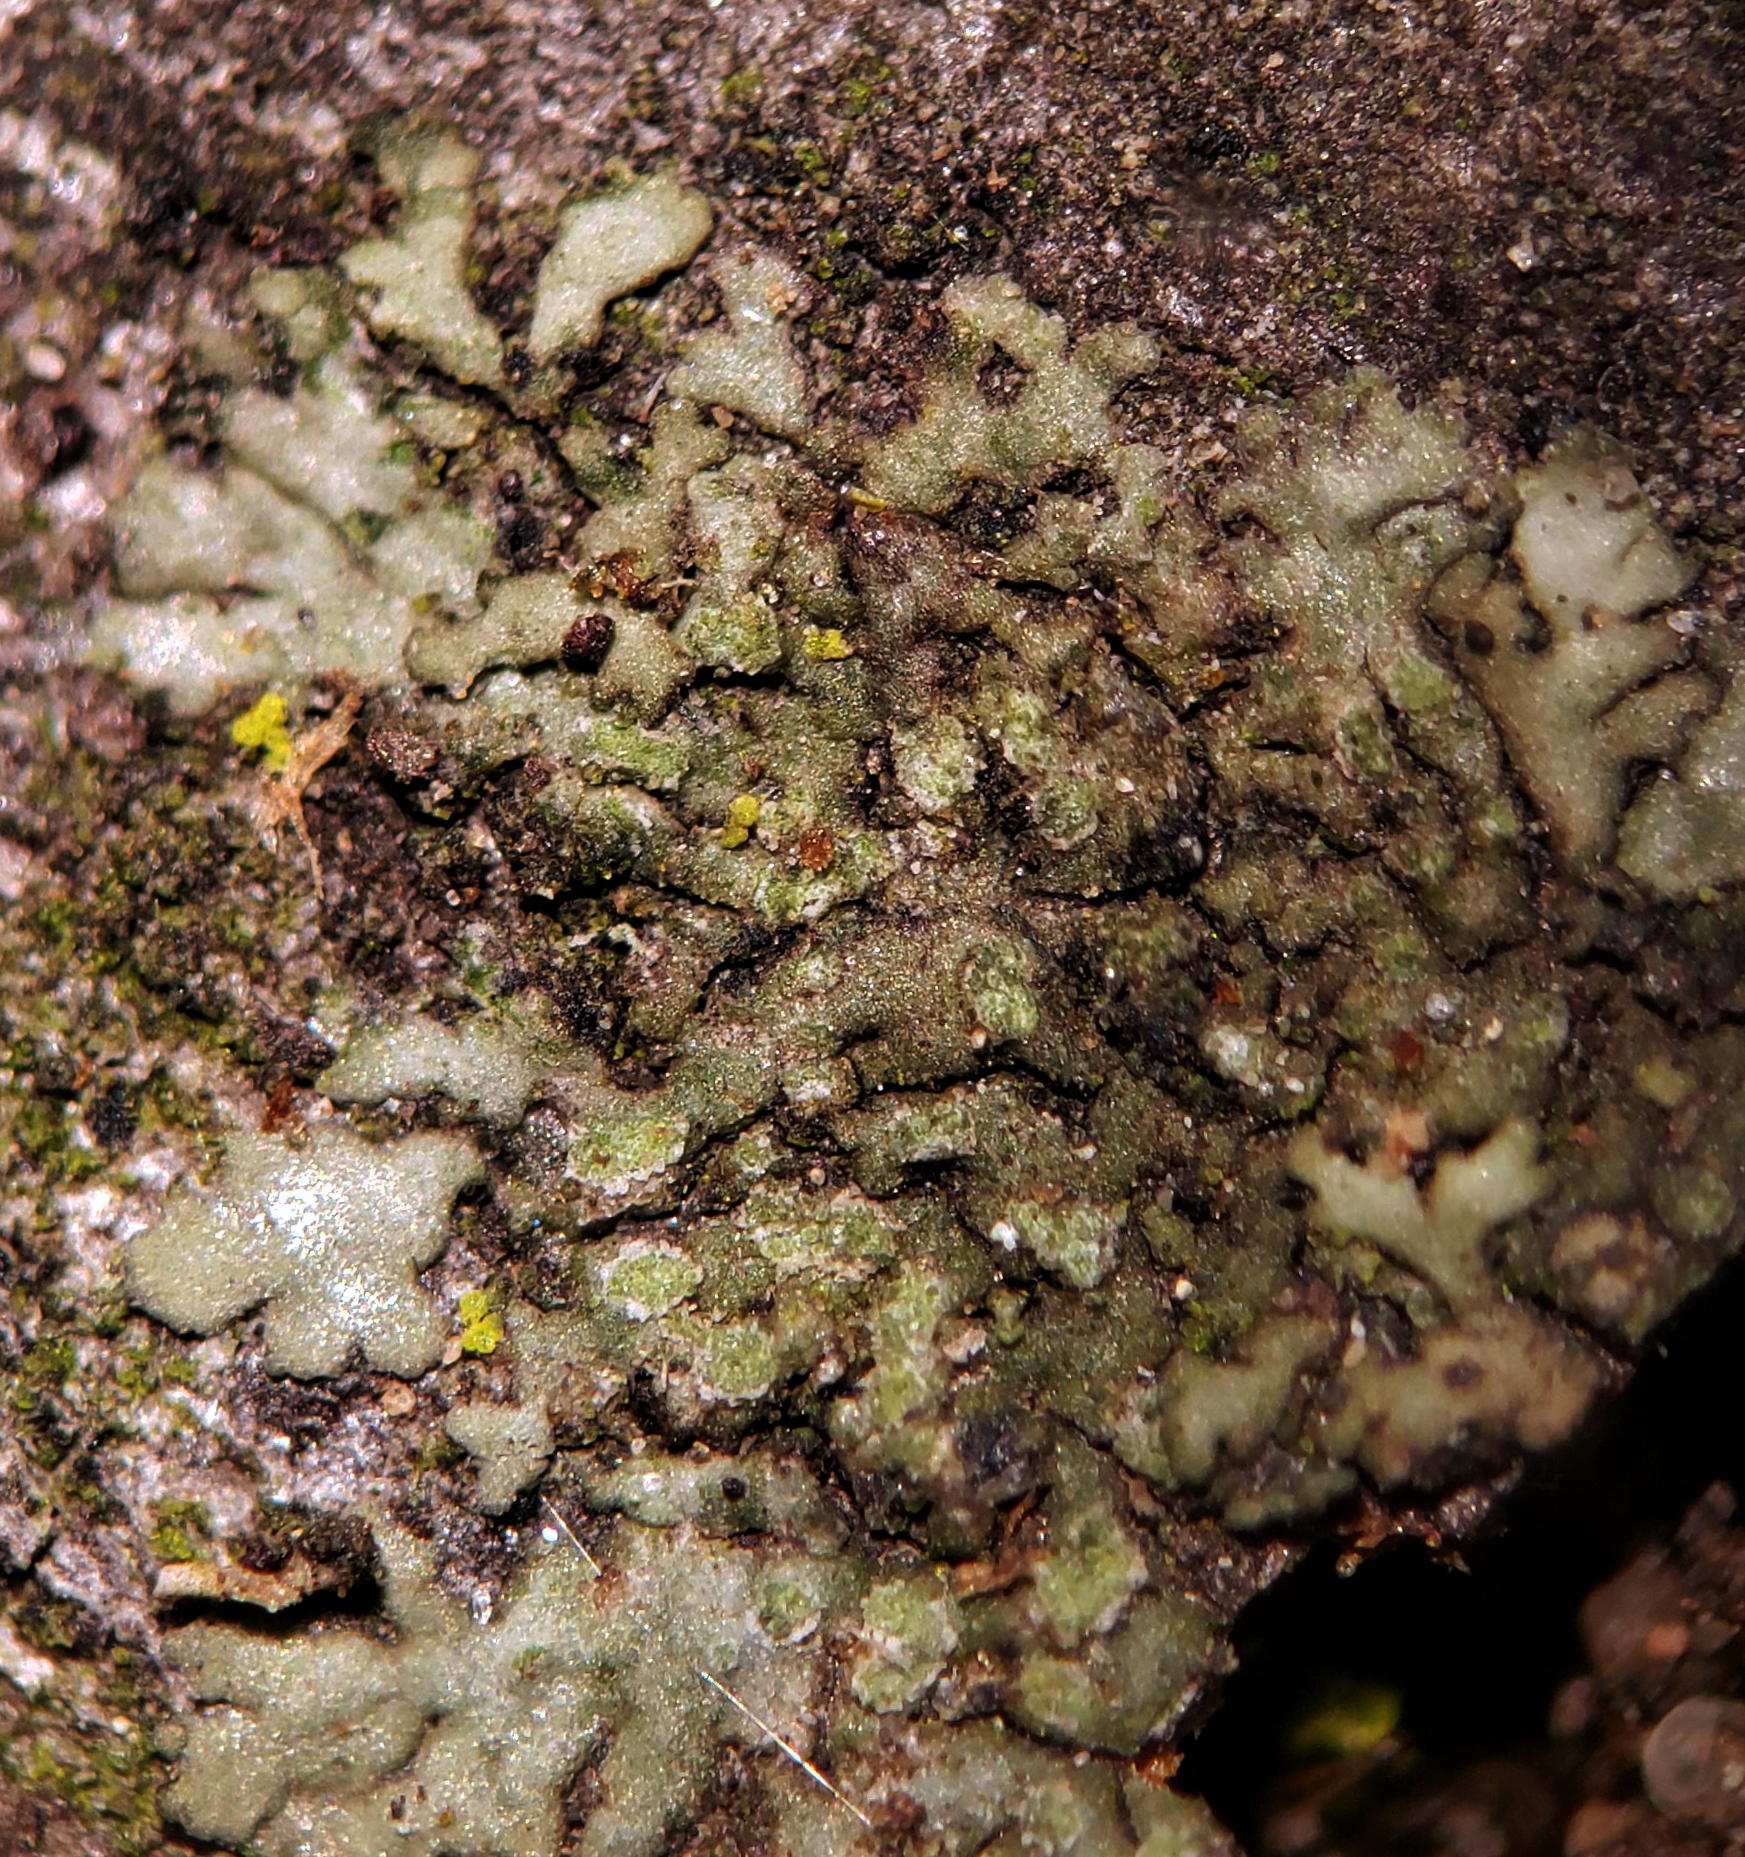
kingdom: Fungi
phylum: Ascomycota
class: Lecanoromycetes
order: Caliciales
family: Physciaceae
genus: Hyperphyscia
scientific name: Hyperphyscia adglutinata
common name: Grainy shadow-crust lichen
